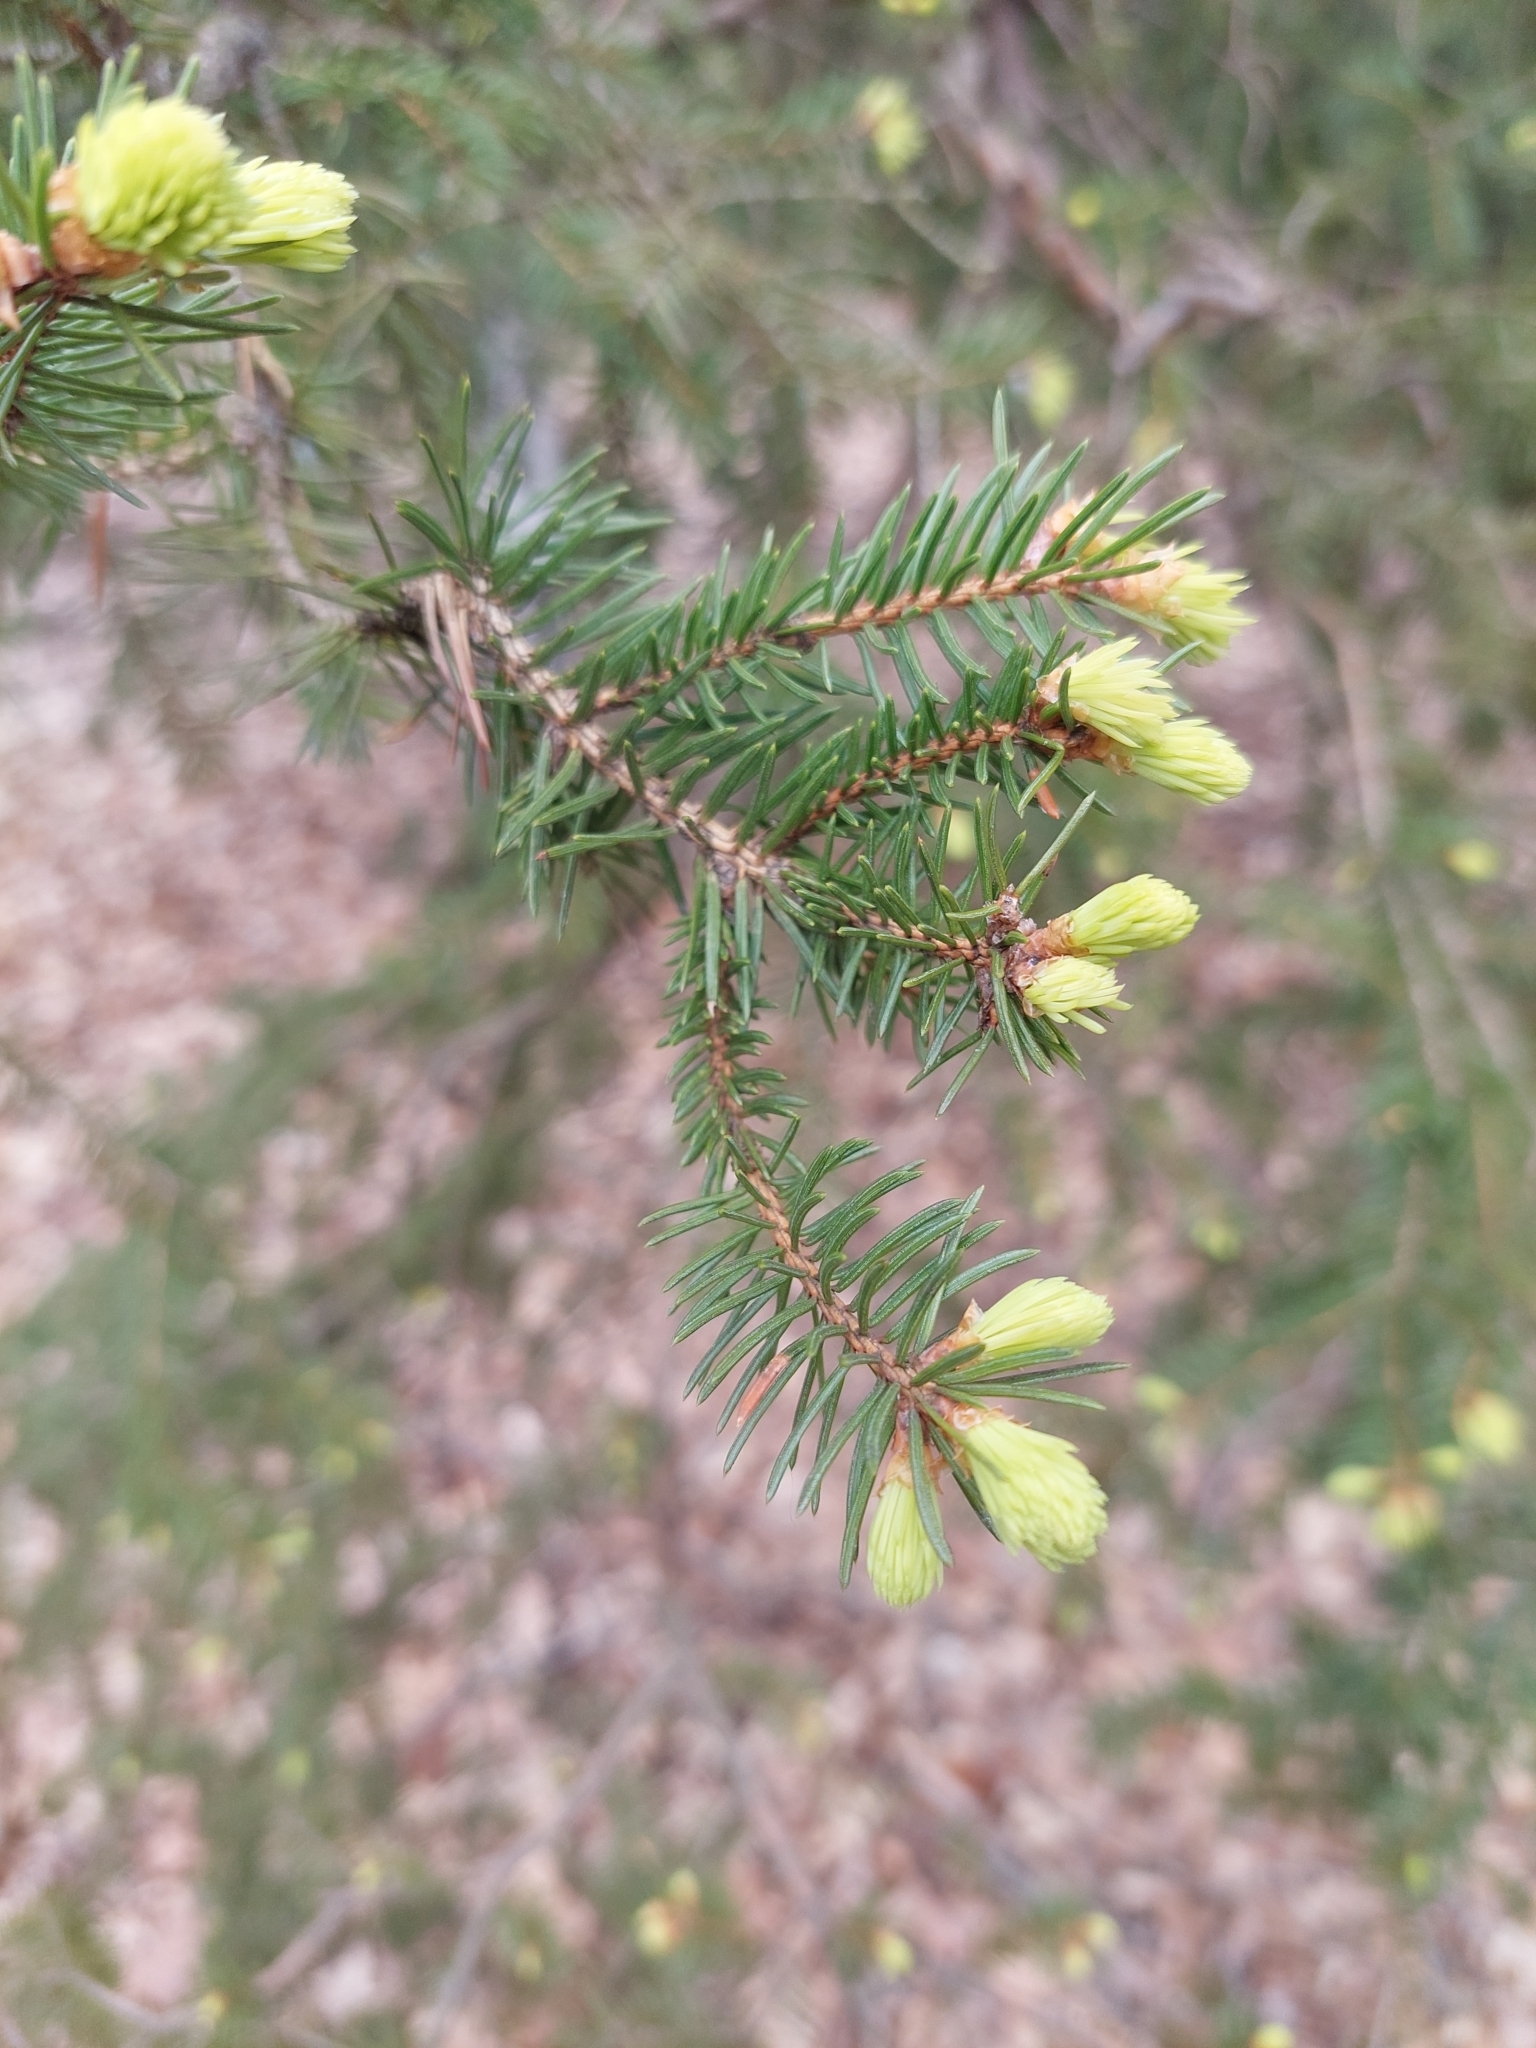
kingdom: Plantae
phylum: Tracheophyta
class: Pinopsida
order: Pinales
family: Pinaceae
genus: Picea
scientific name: Picea abies
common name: Norway spruce
